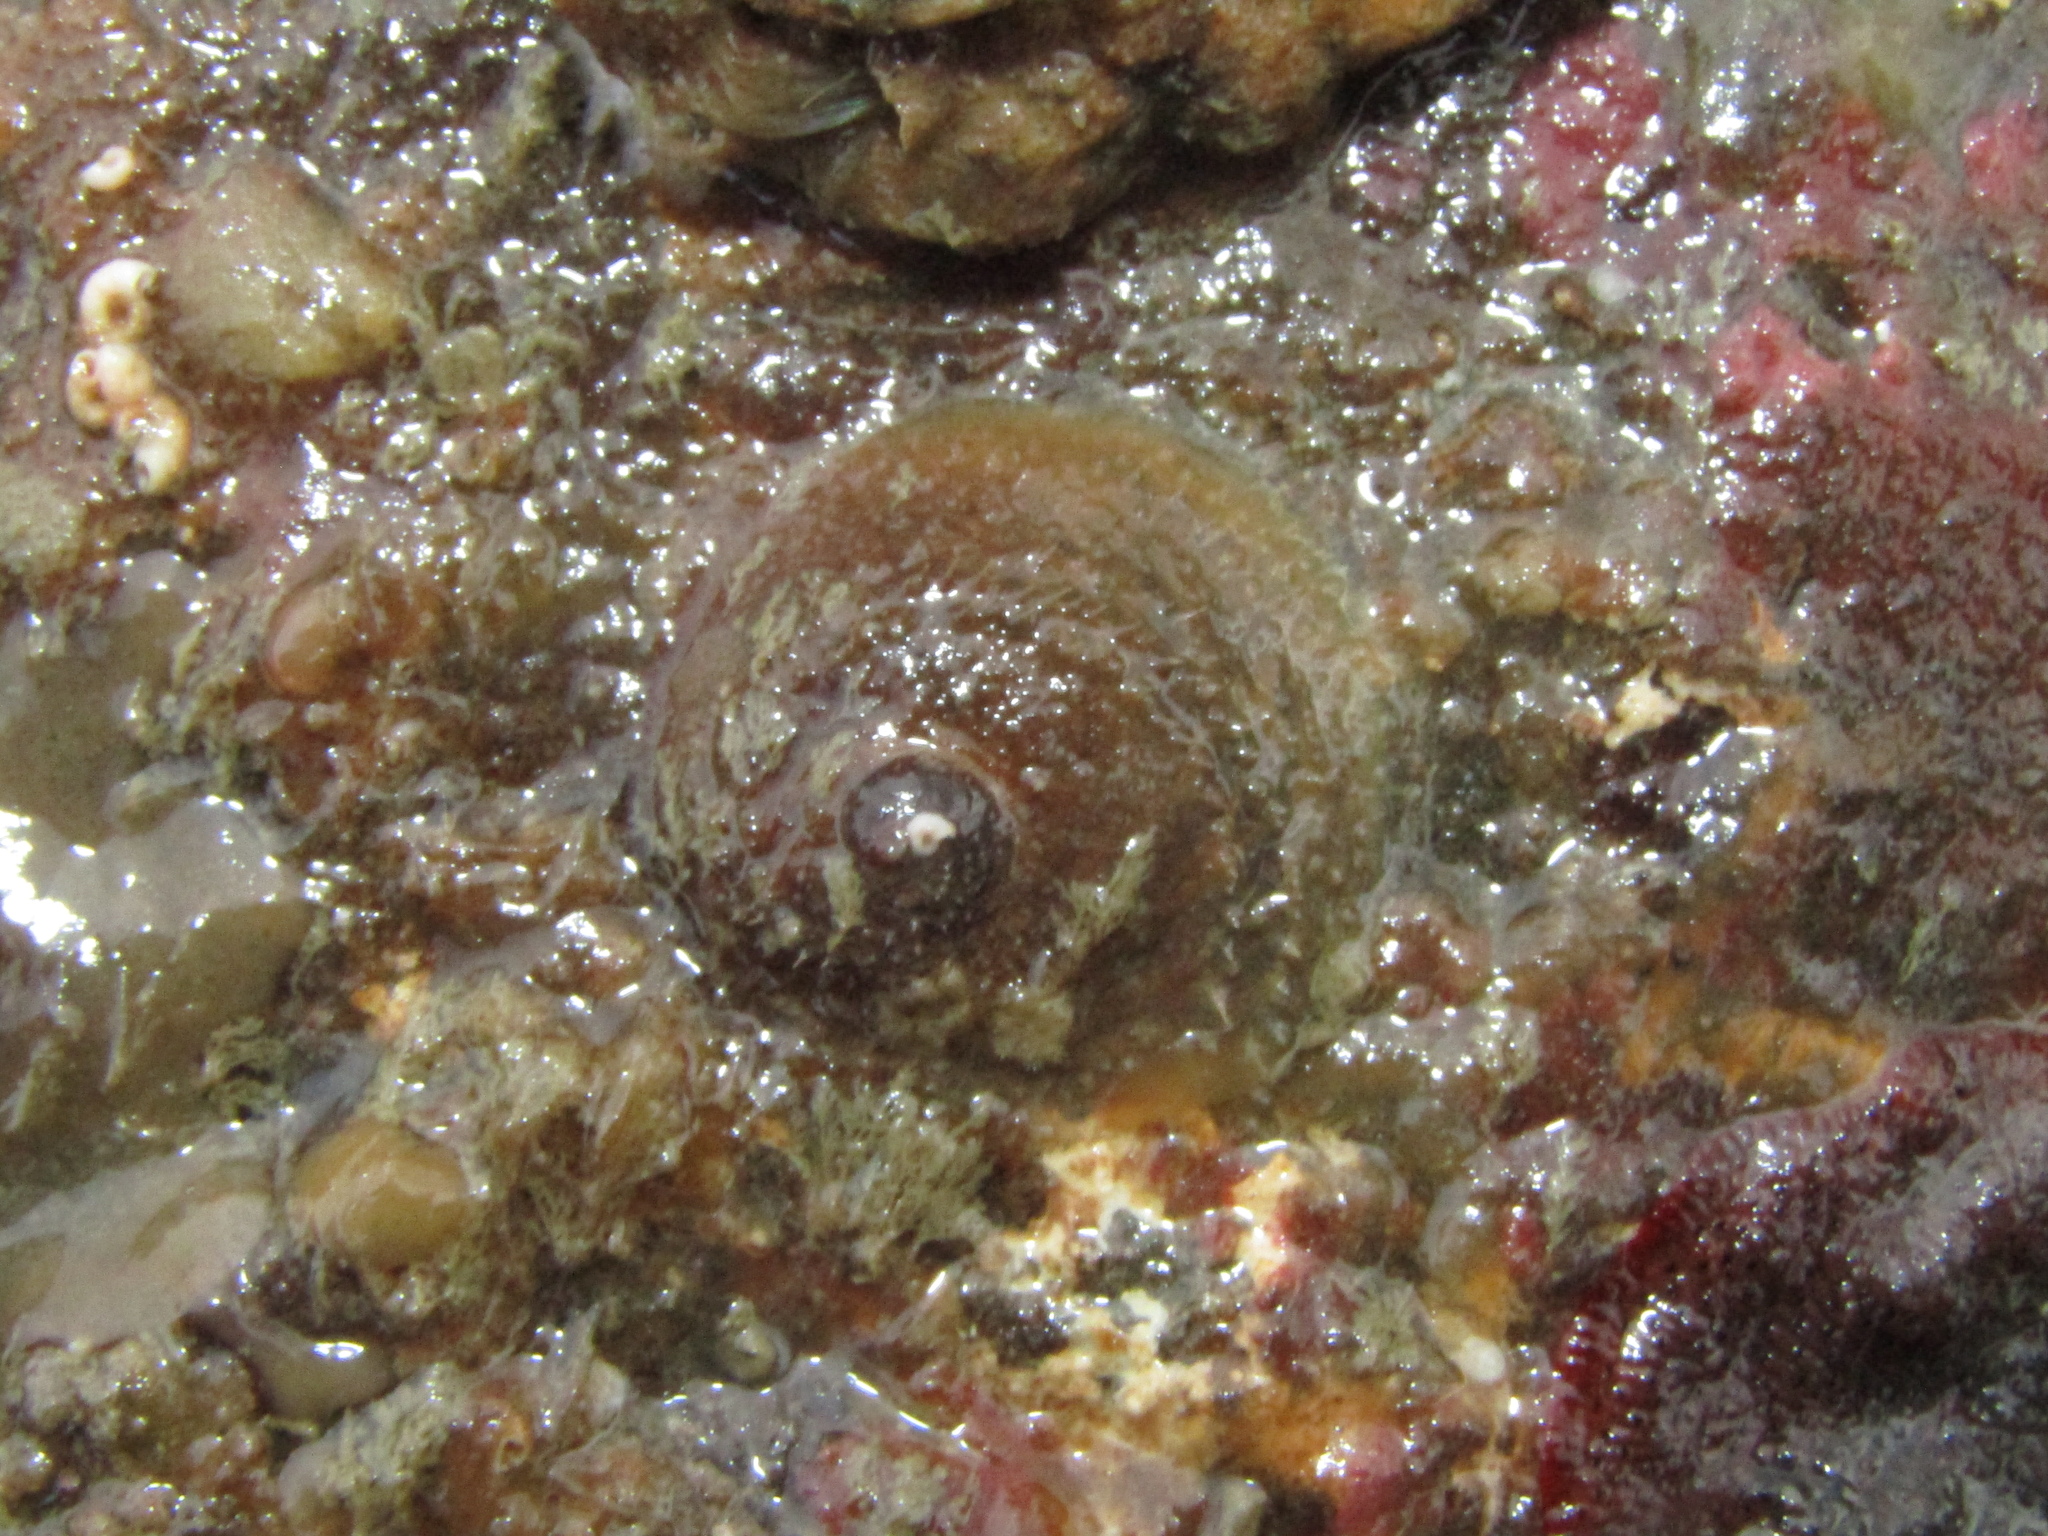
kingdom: Animalia
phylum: Mollusca
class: Gastropoda
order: Littorinimorpha
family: Calyptraeidae
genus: Sigapatella
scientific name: Sigapatella novaezelandiae
